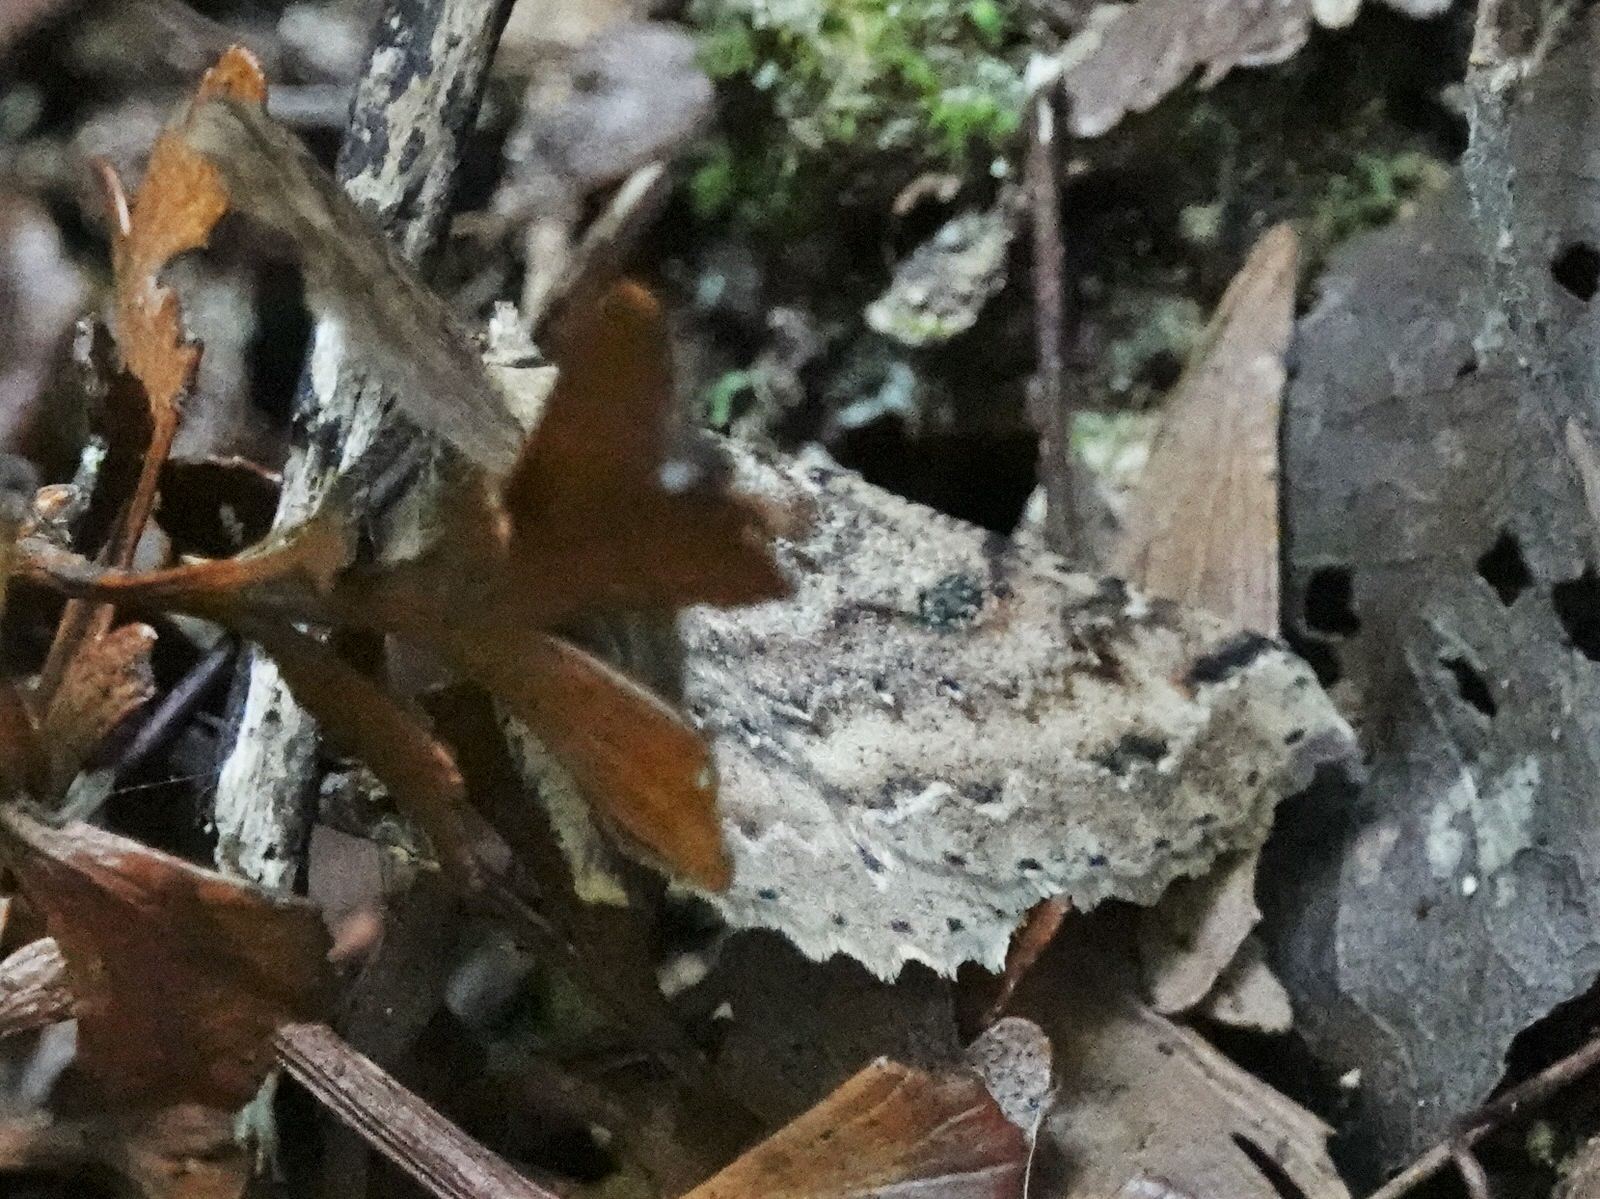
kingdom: Animalia
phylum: Arthropoda
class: Insecta
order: Lepidoptera
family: Geometridae
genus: Cleora
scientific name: Cleora scriptaria
